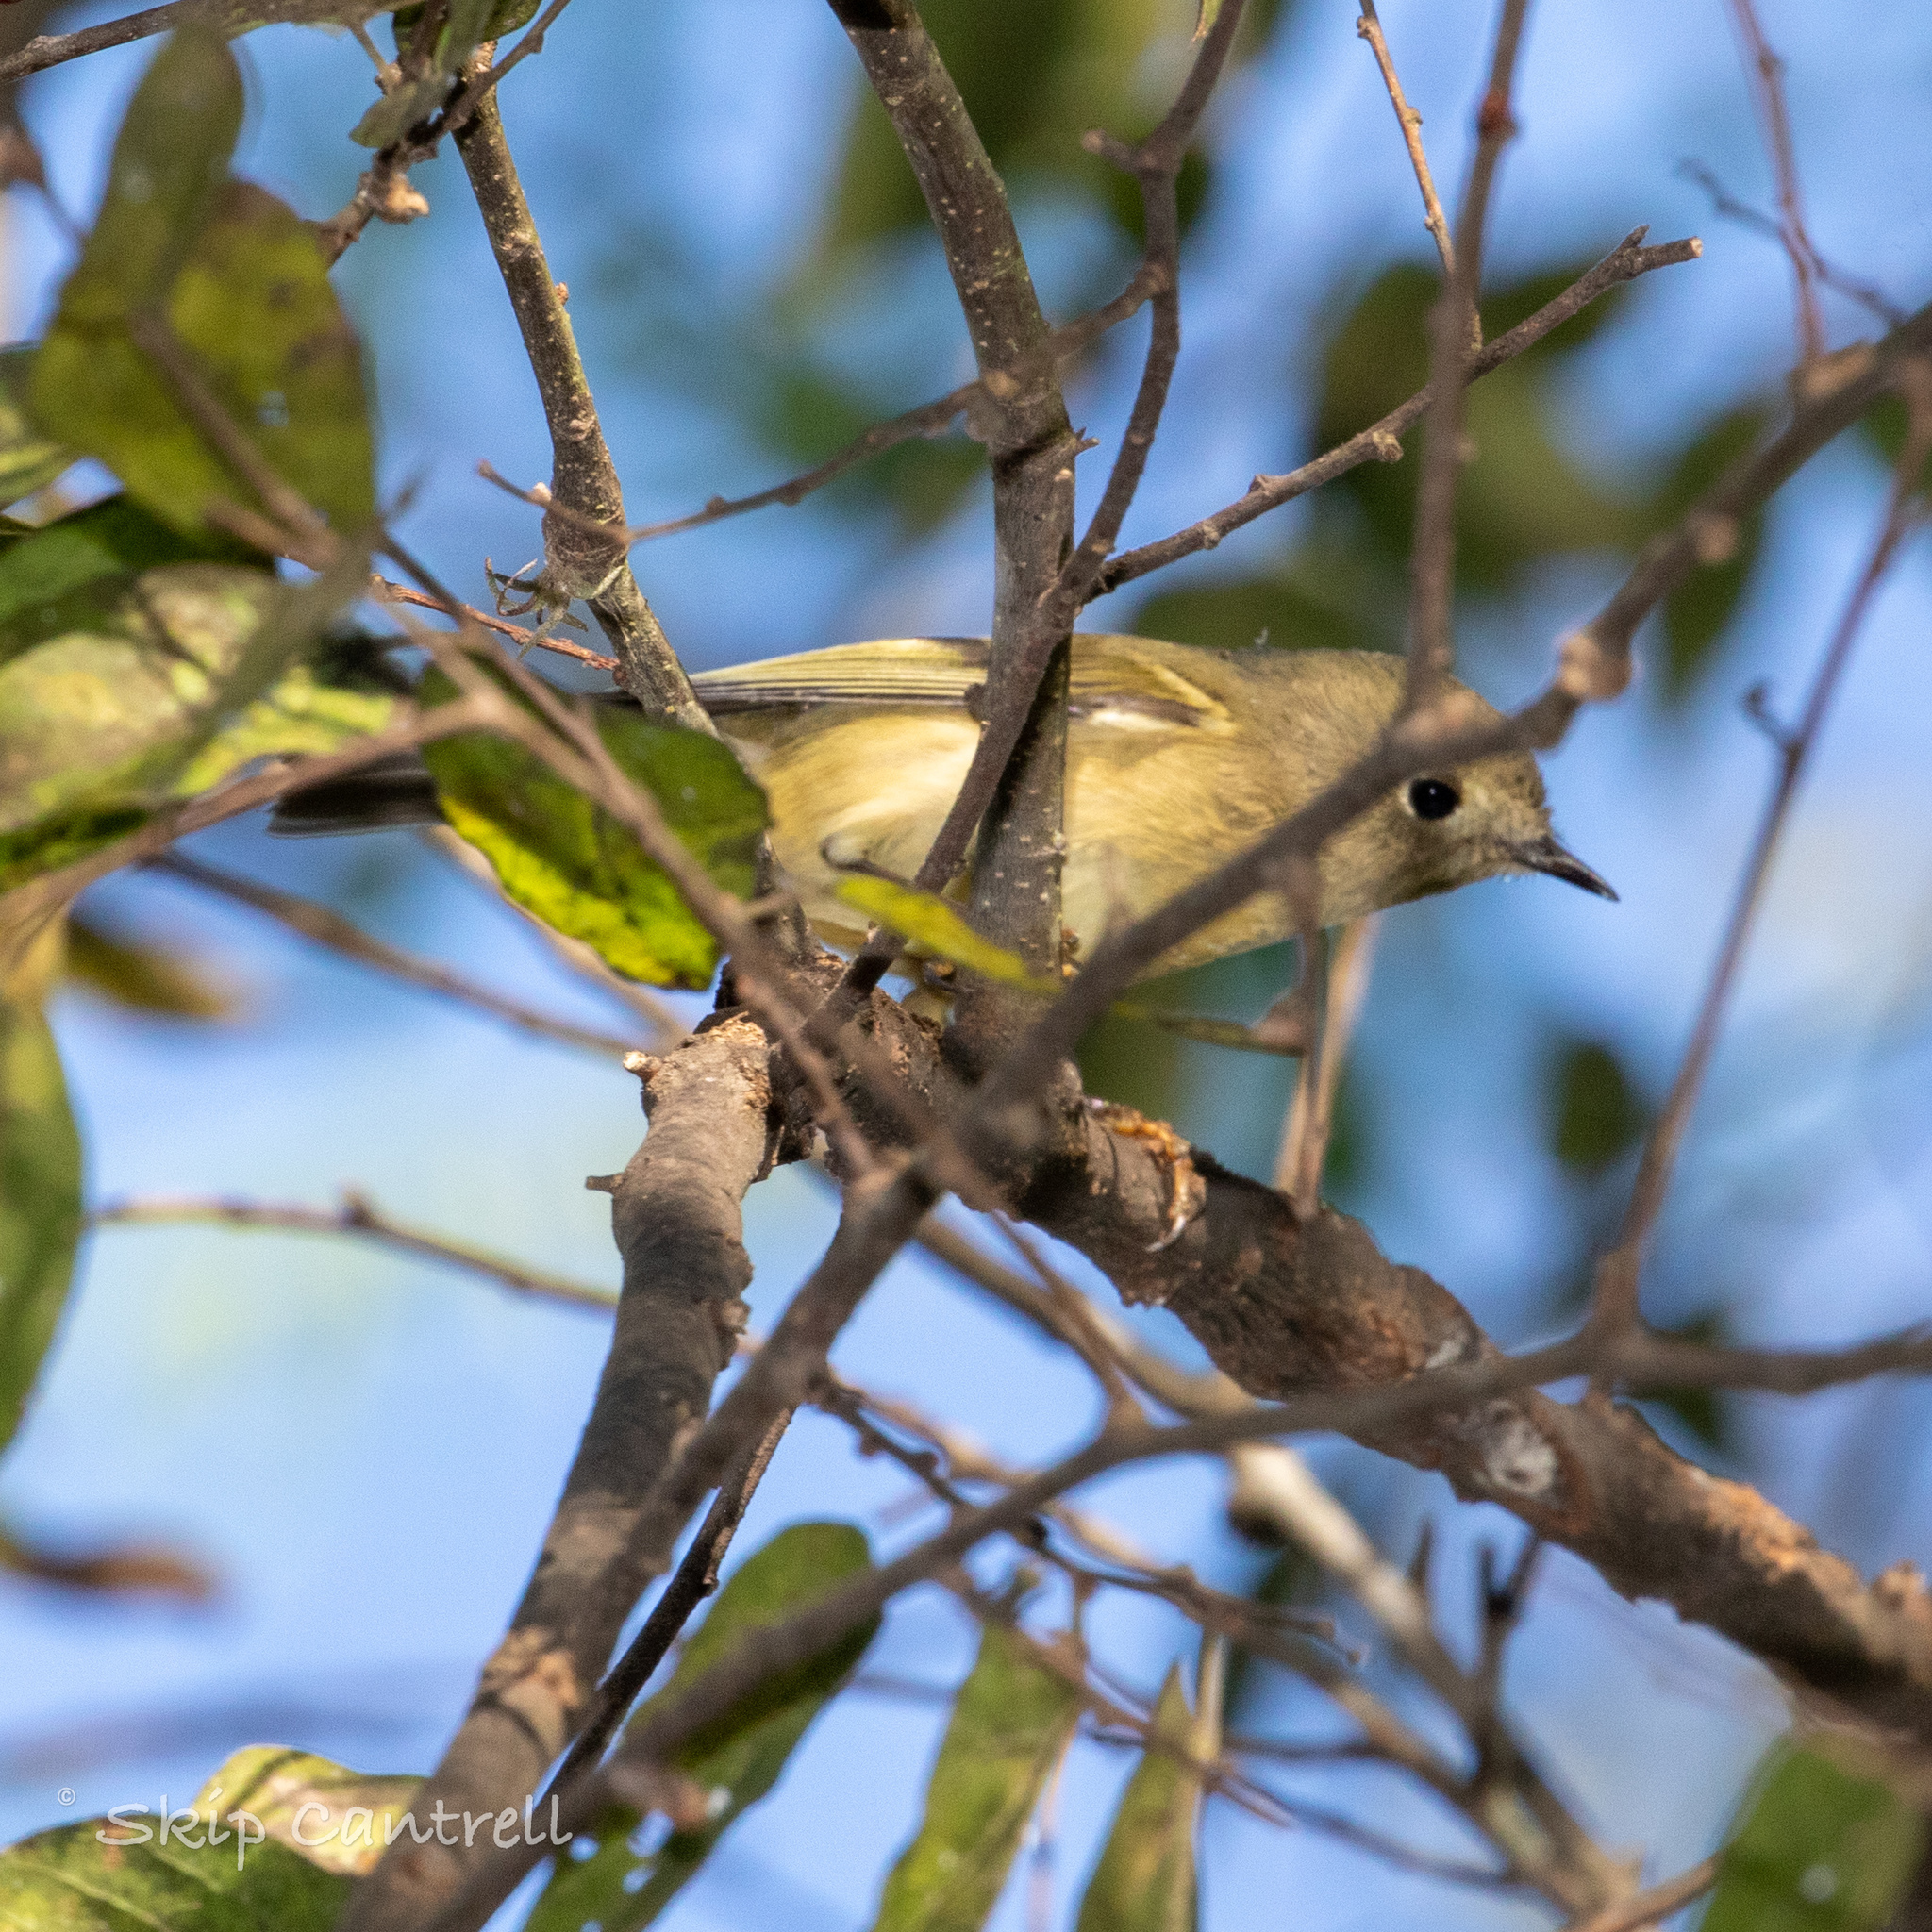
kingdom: Animalia
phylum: Chordata
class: Aves
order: Passeriformes
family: Regulidae
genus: Regulus
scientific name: Regulus calendula
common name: Ruby-crowned kinglet
